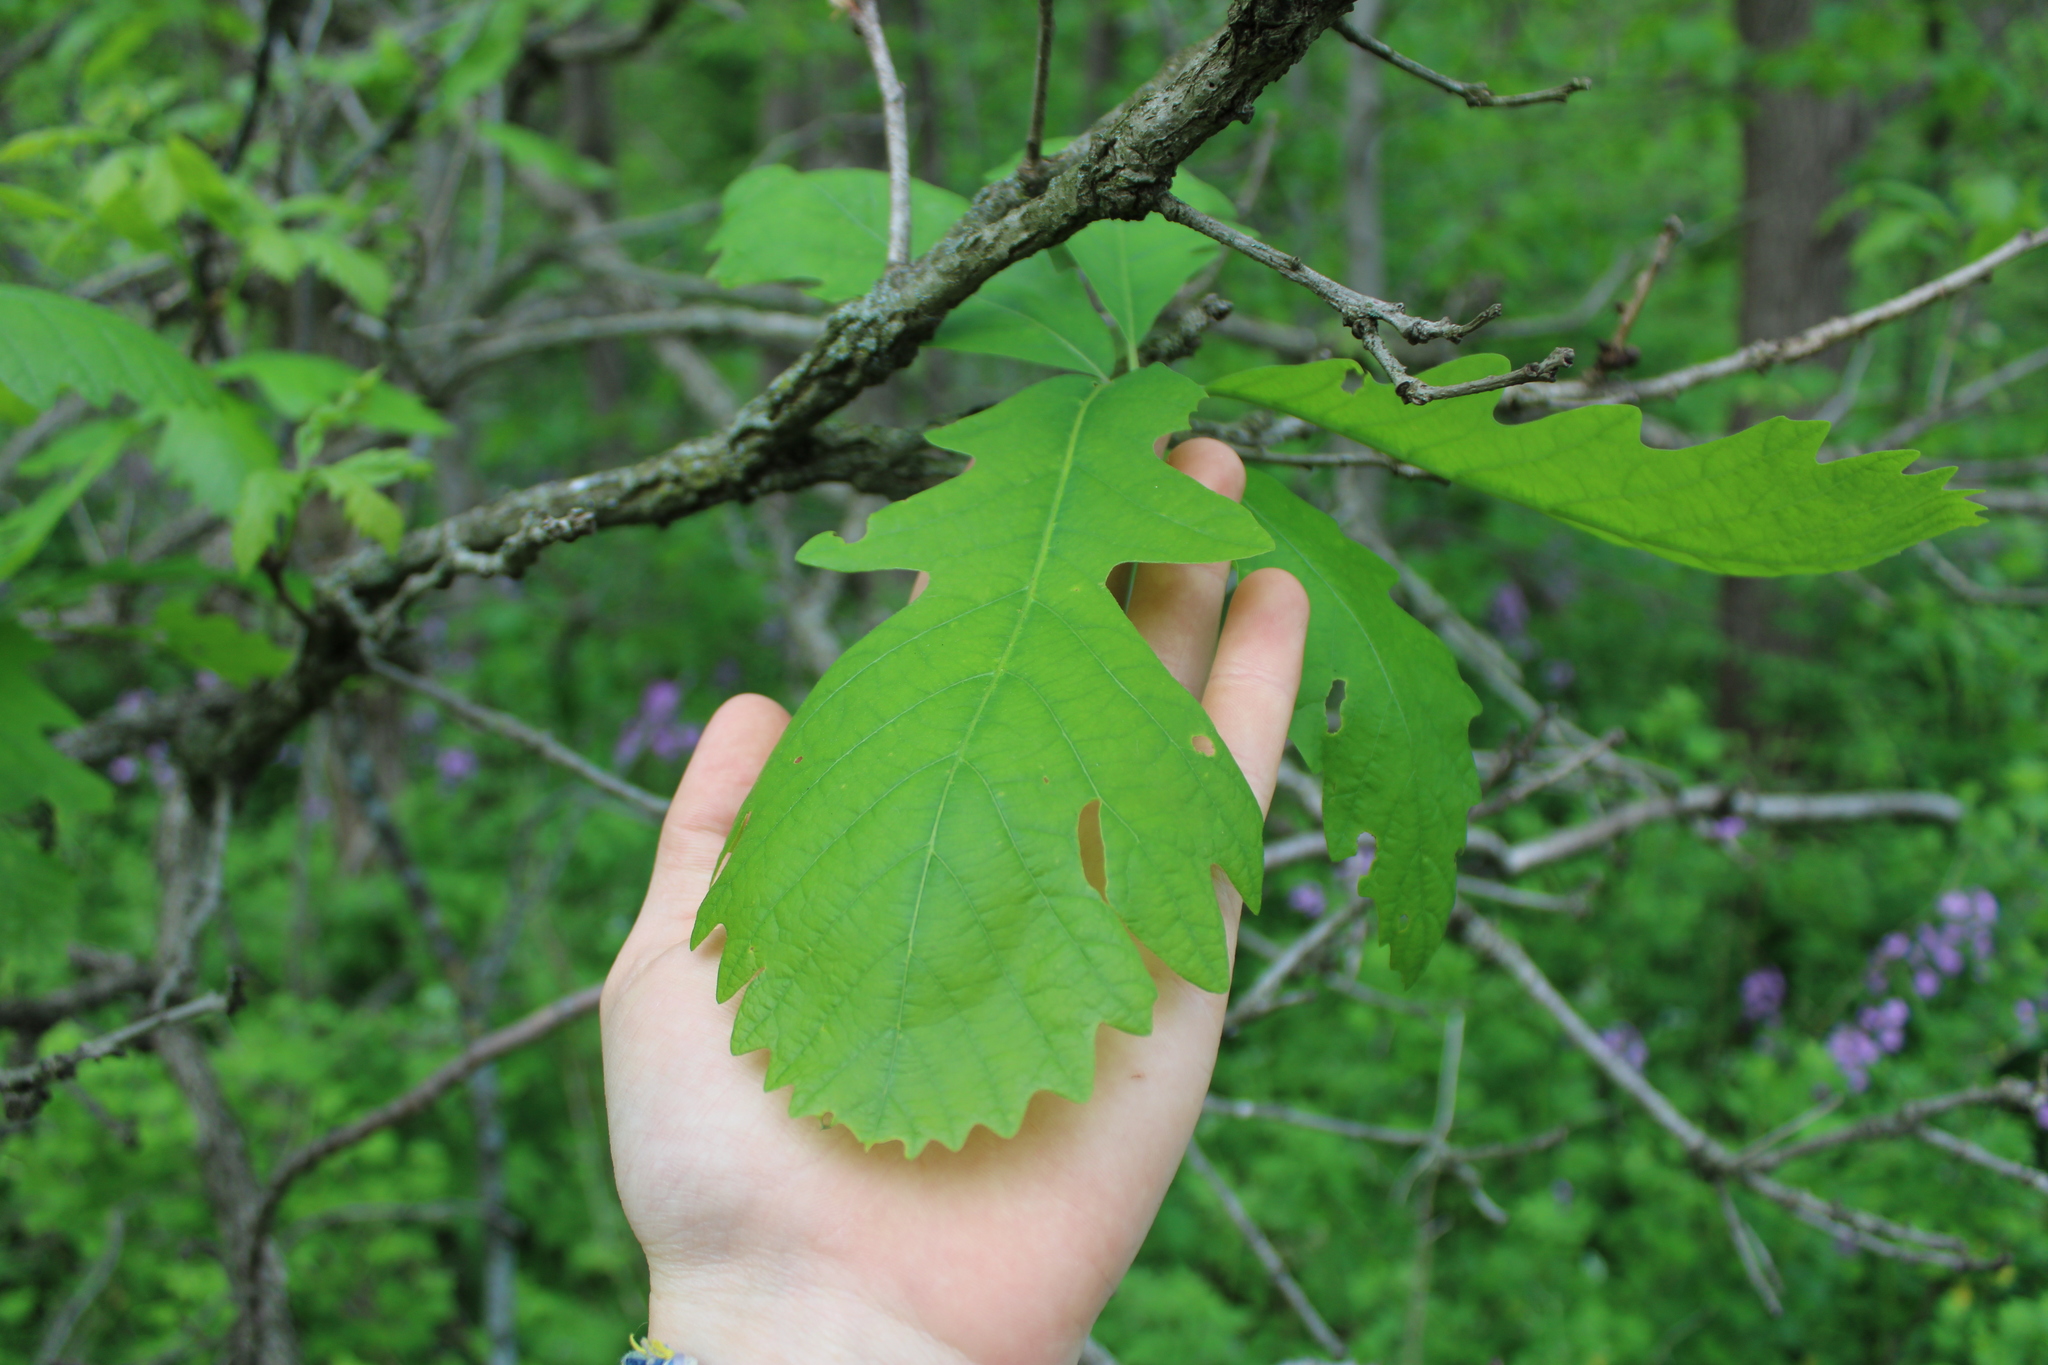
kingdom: Plantae
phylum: Tracheophyta
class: Magnoliopsida
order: Fagales
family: Fagaceae
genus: Quercus
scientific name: Quercus macrocarpa
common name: Bur oak
